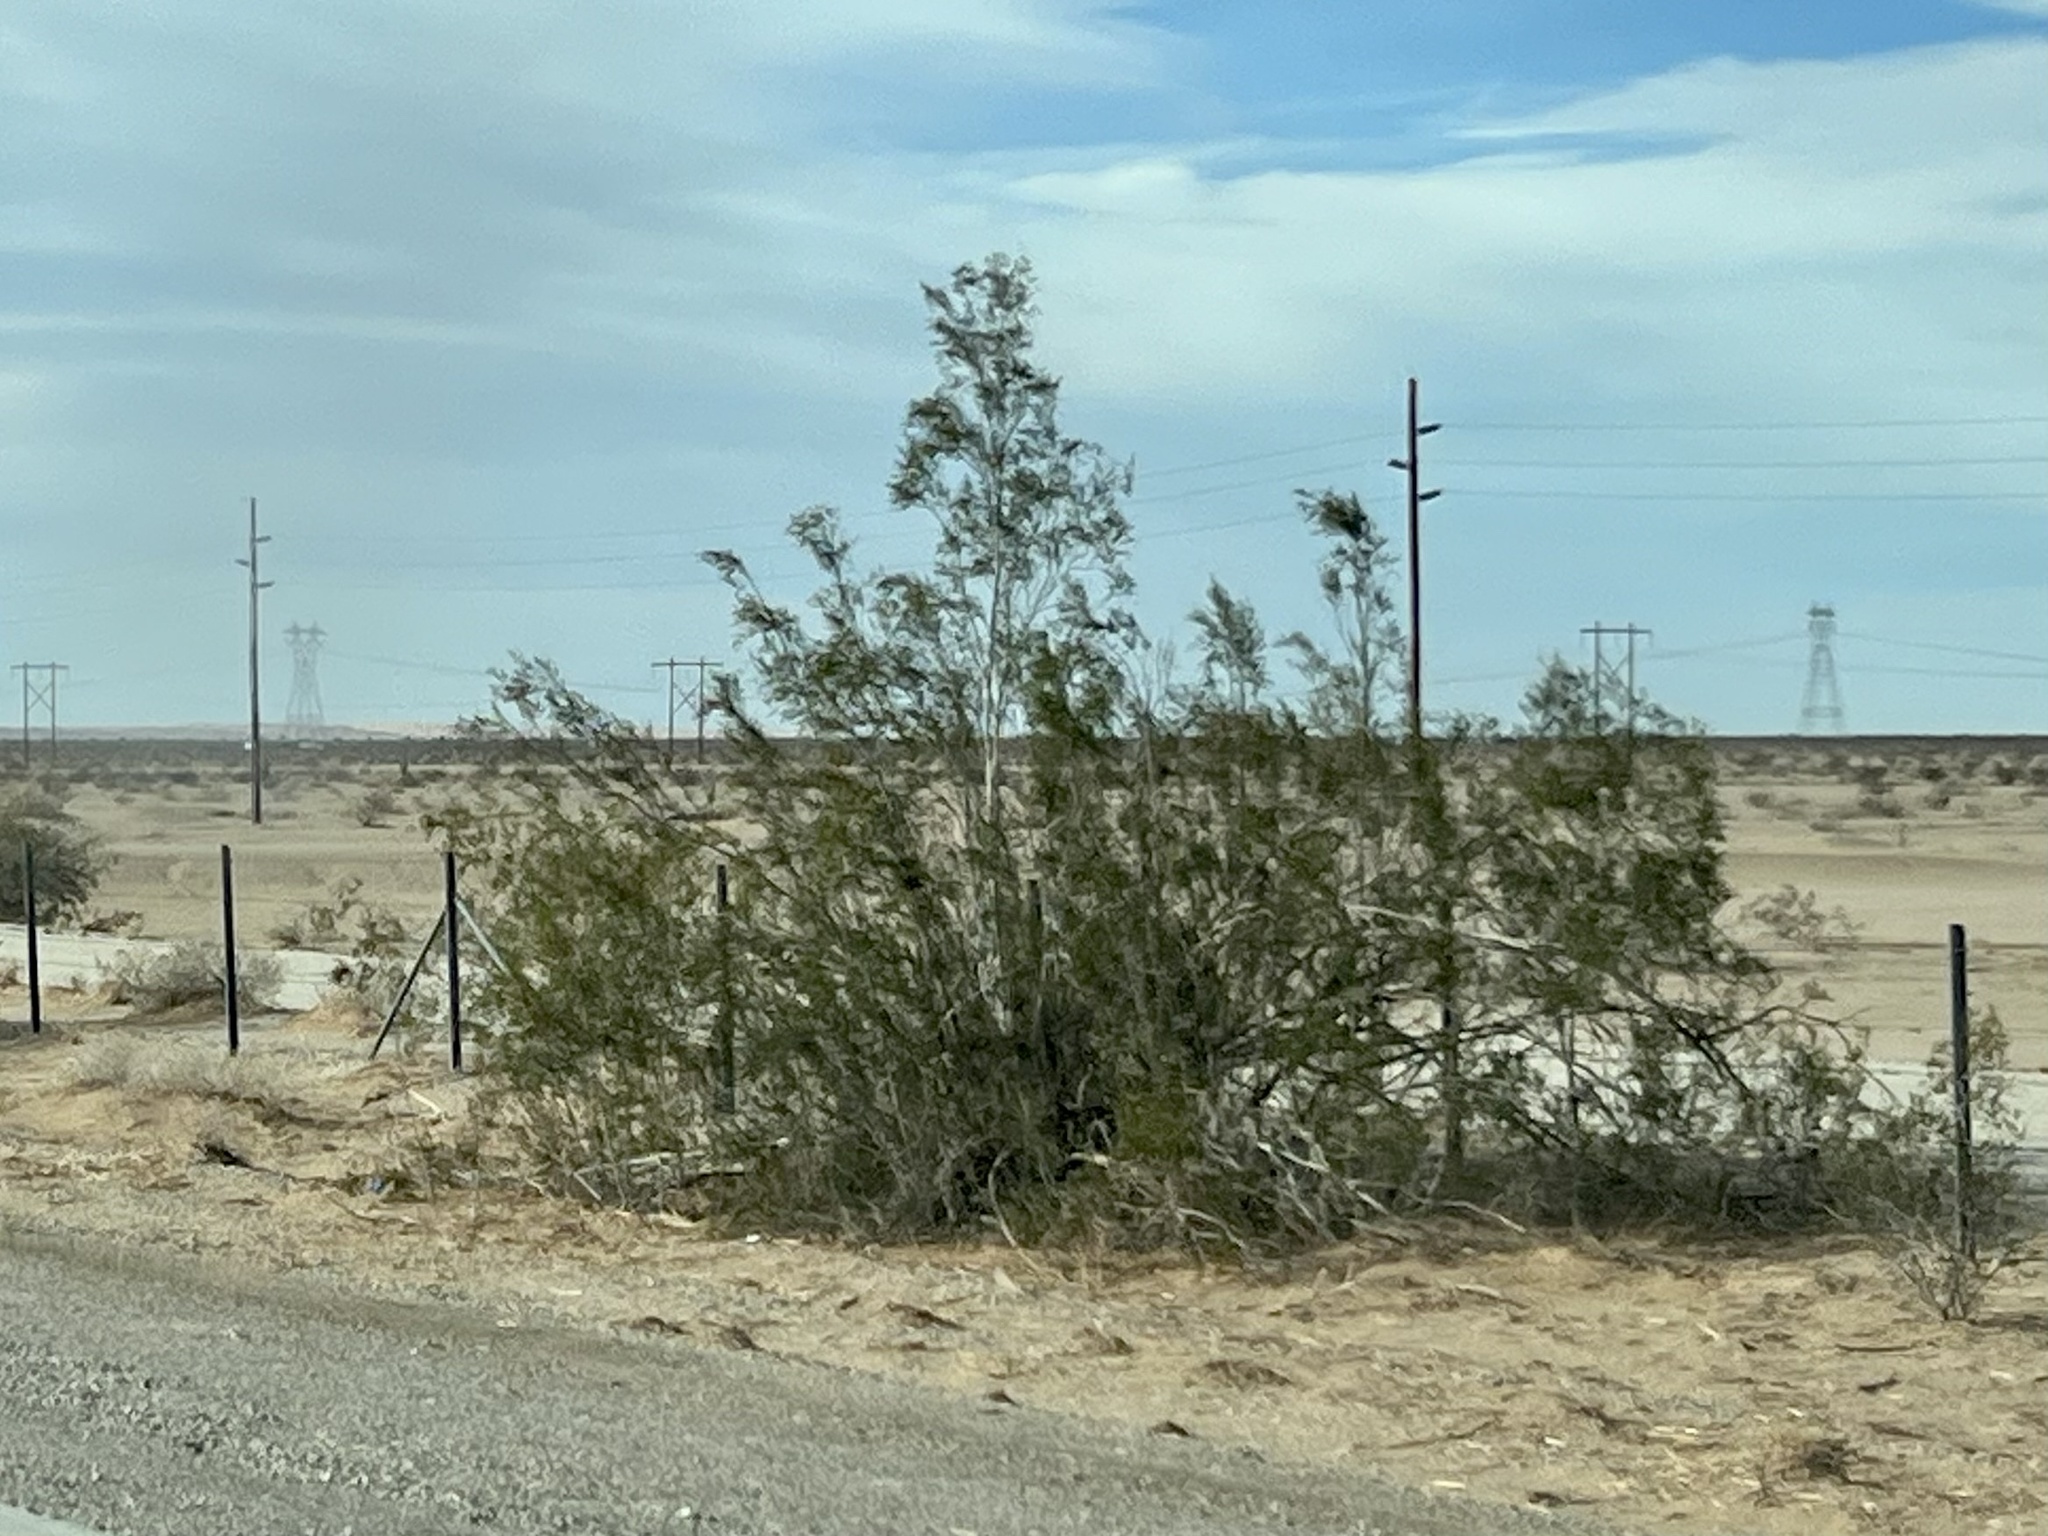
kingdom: Plantae
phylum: Tracheophyta
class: Magnoliopsida
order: Zygophyllales
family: Zygophyllaceae
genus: Larrea
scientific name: Larrea tridentata
